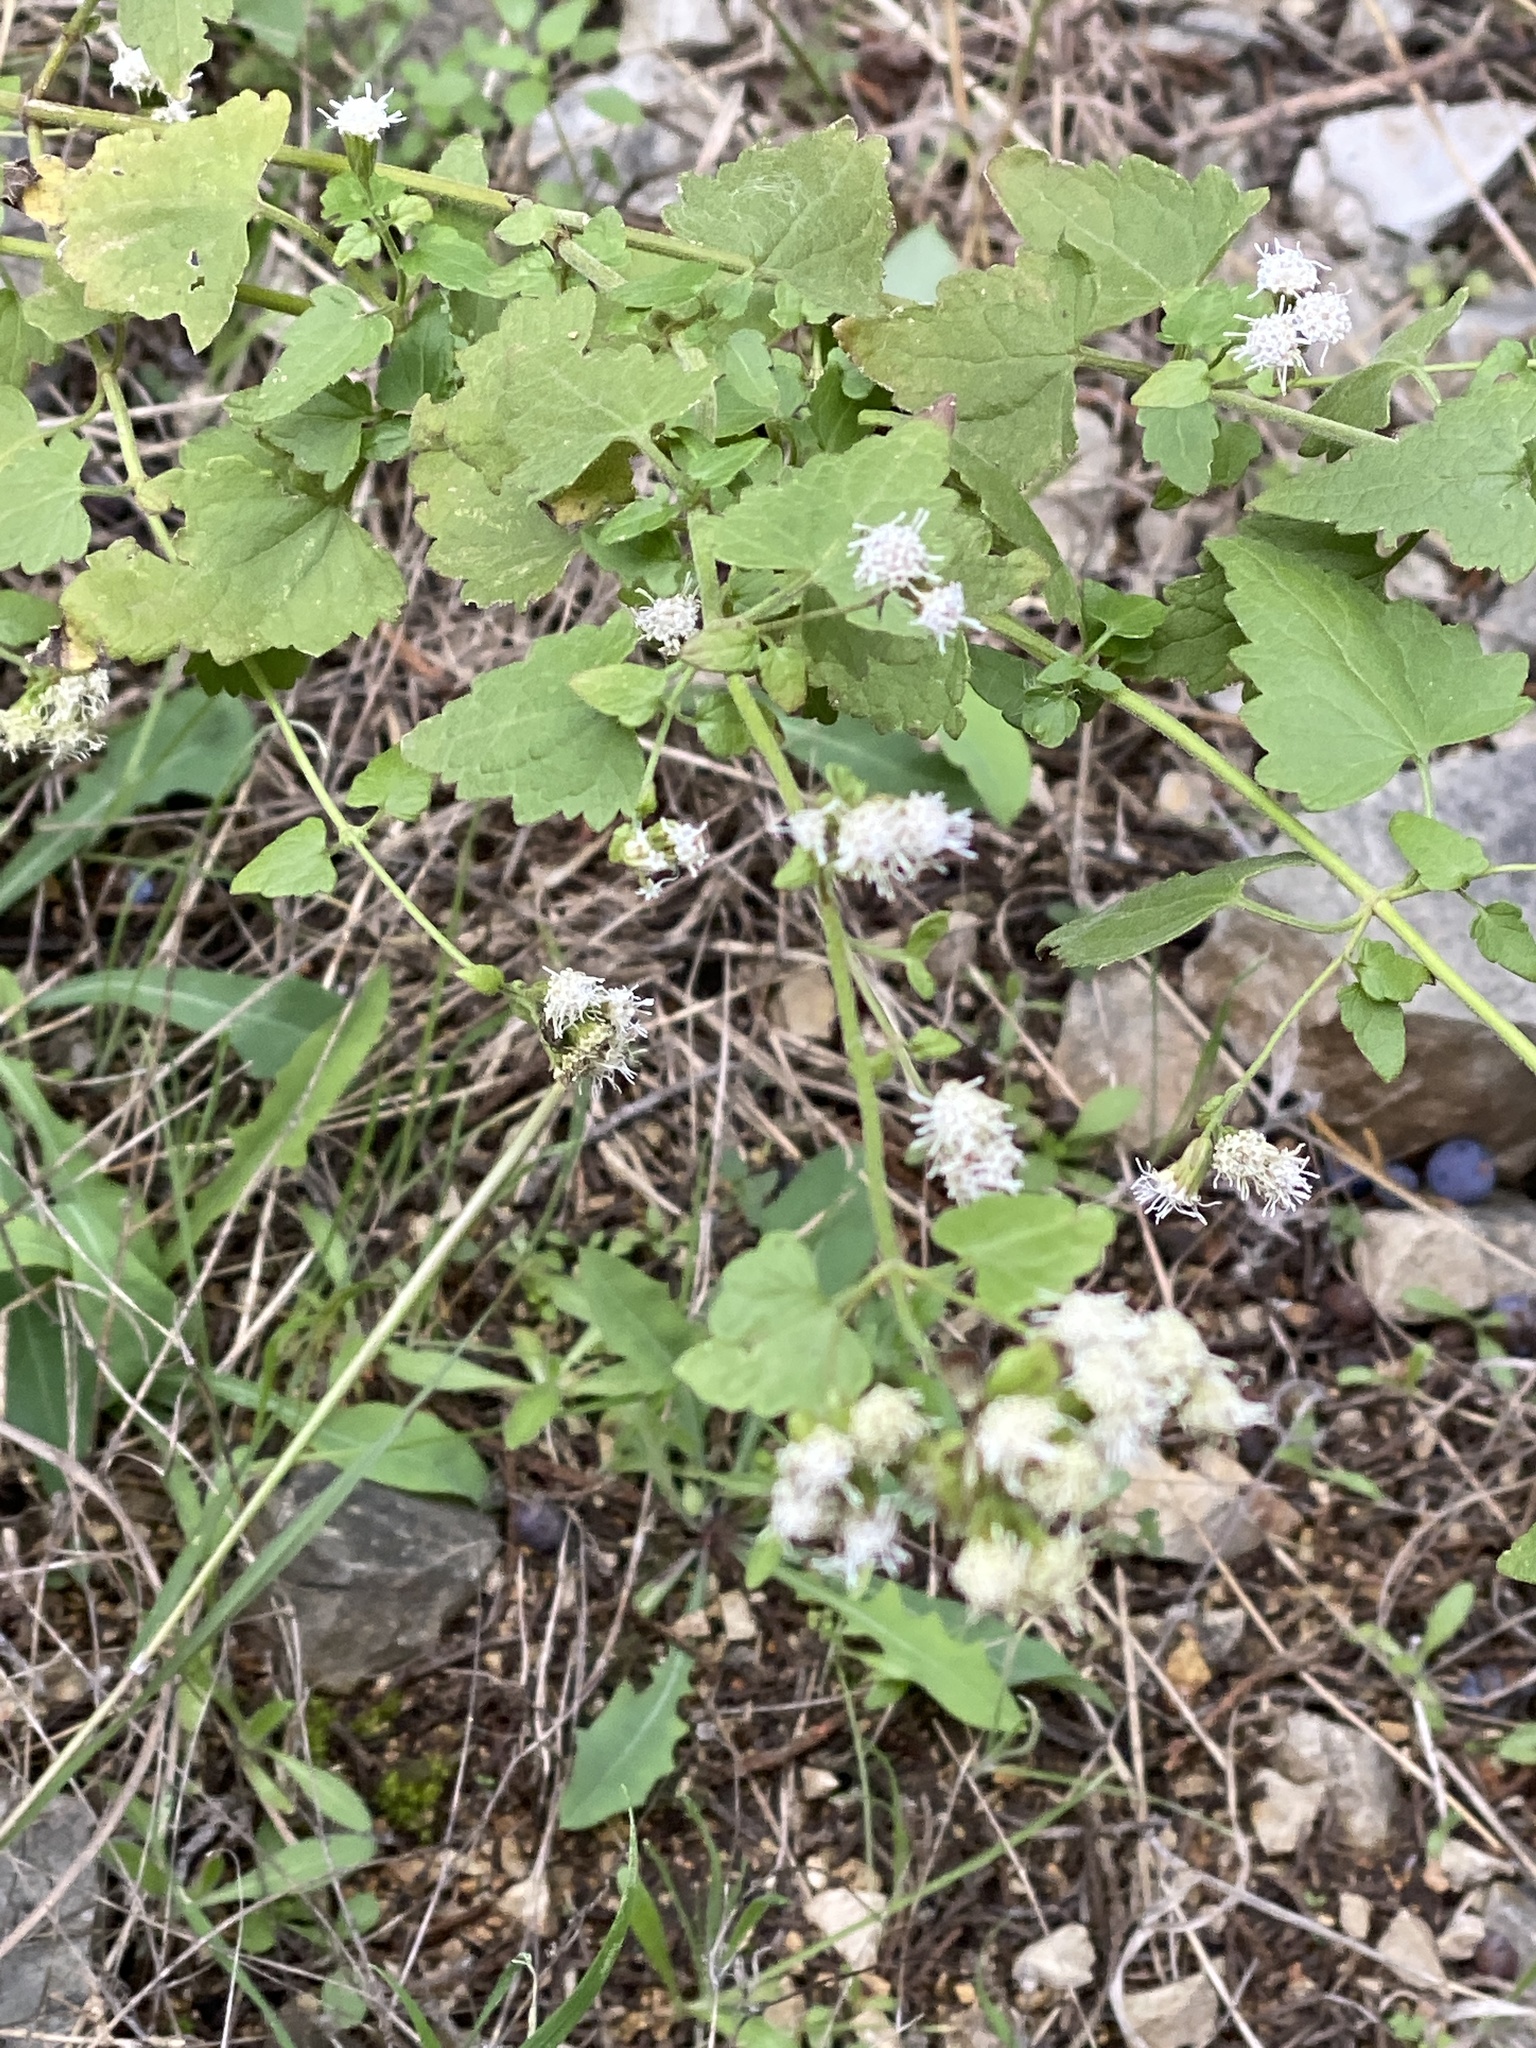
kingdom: Plantae
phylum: Tracheophyta
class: Magnoliopsida
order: Asterales
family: Asteraceae
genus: Fleischmannia
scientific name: Fleischmannia incarnata
